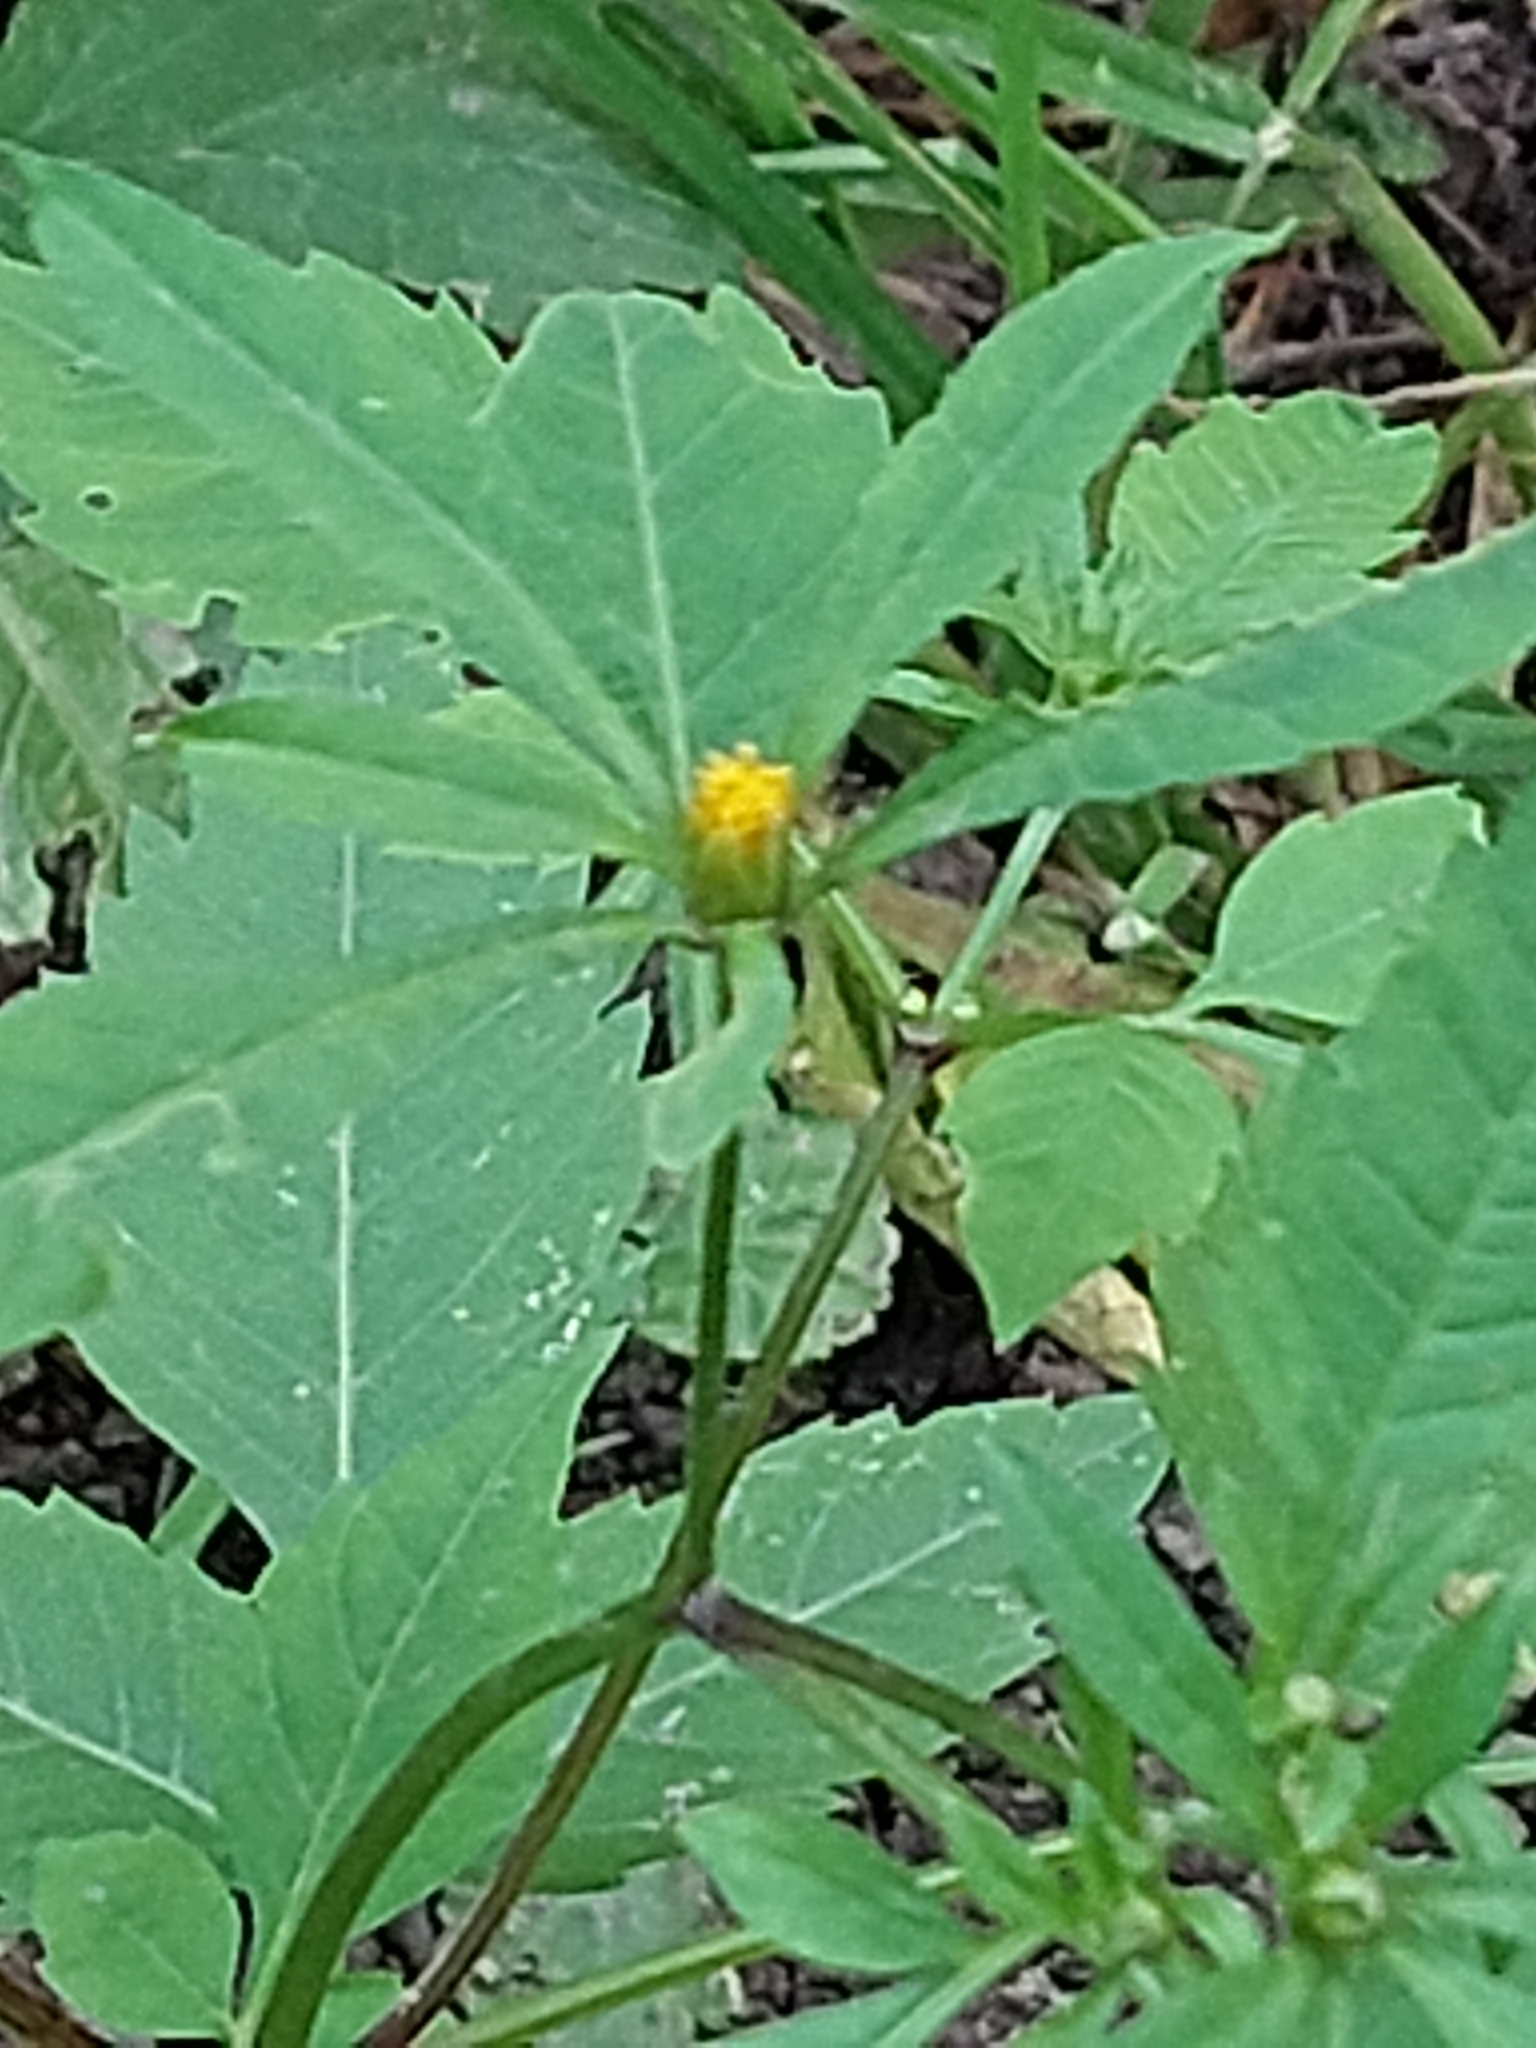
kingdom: Plantae
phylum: Tracheophyta
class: Magnoliopsida
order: Asterales
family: Asteraceae
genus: Bidens
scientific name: Bidens frondosa
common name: Beggarticks
